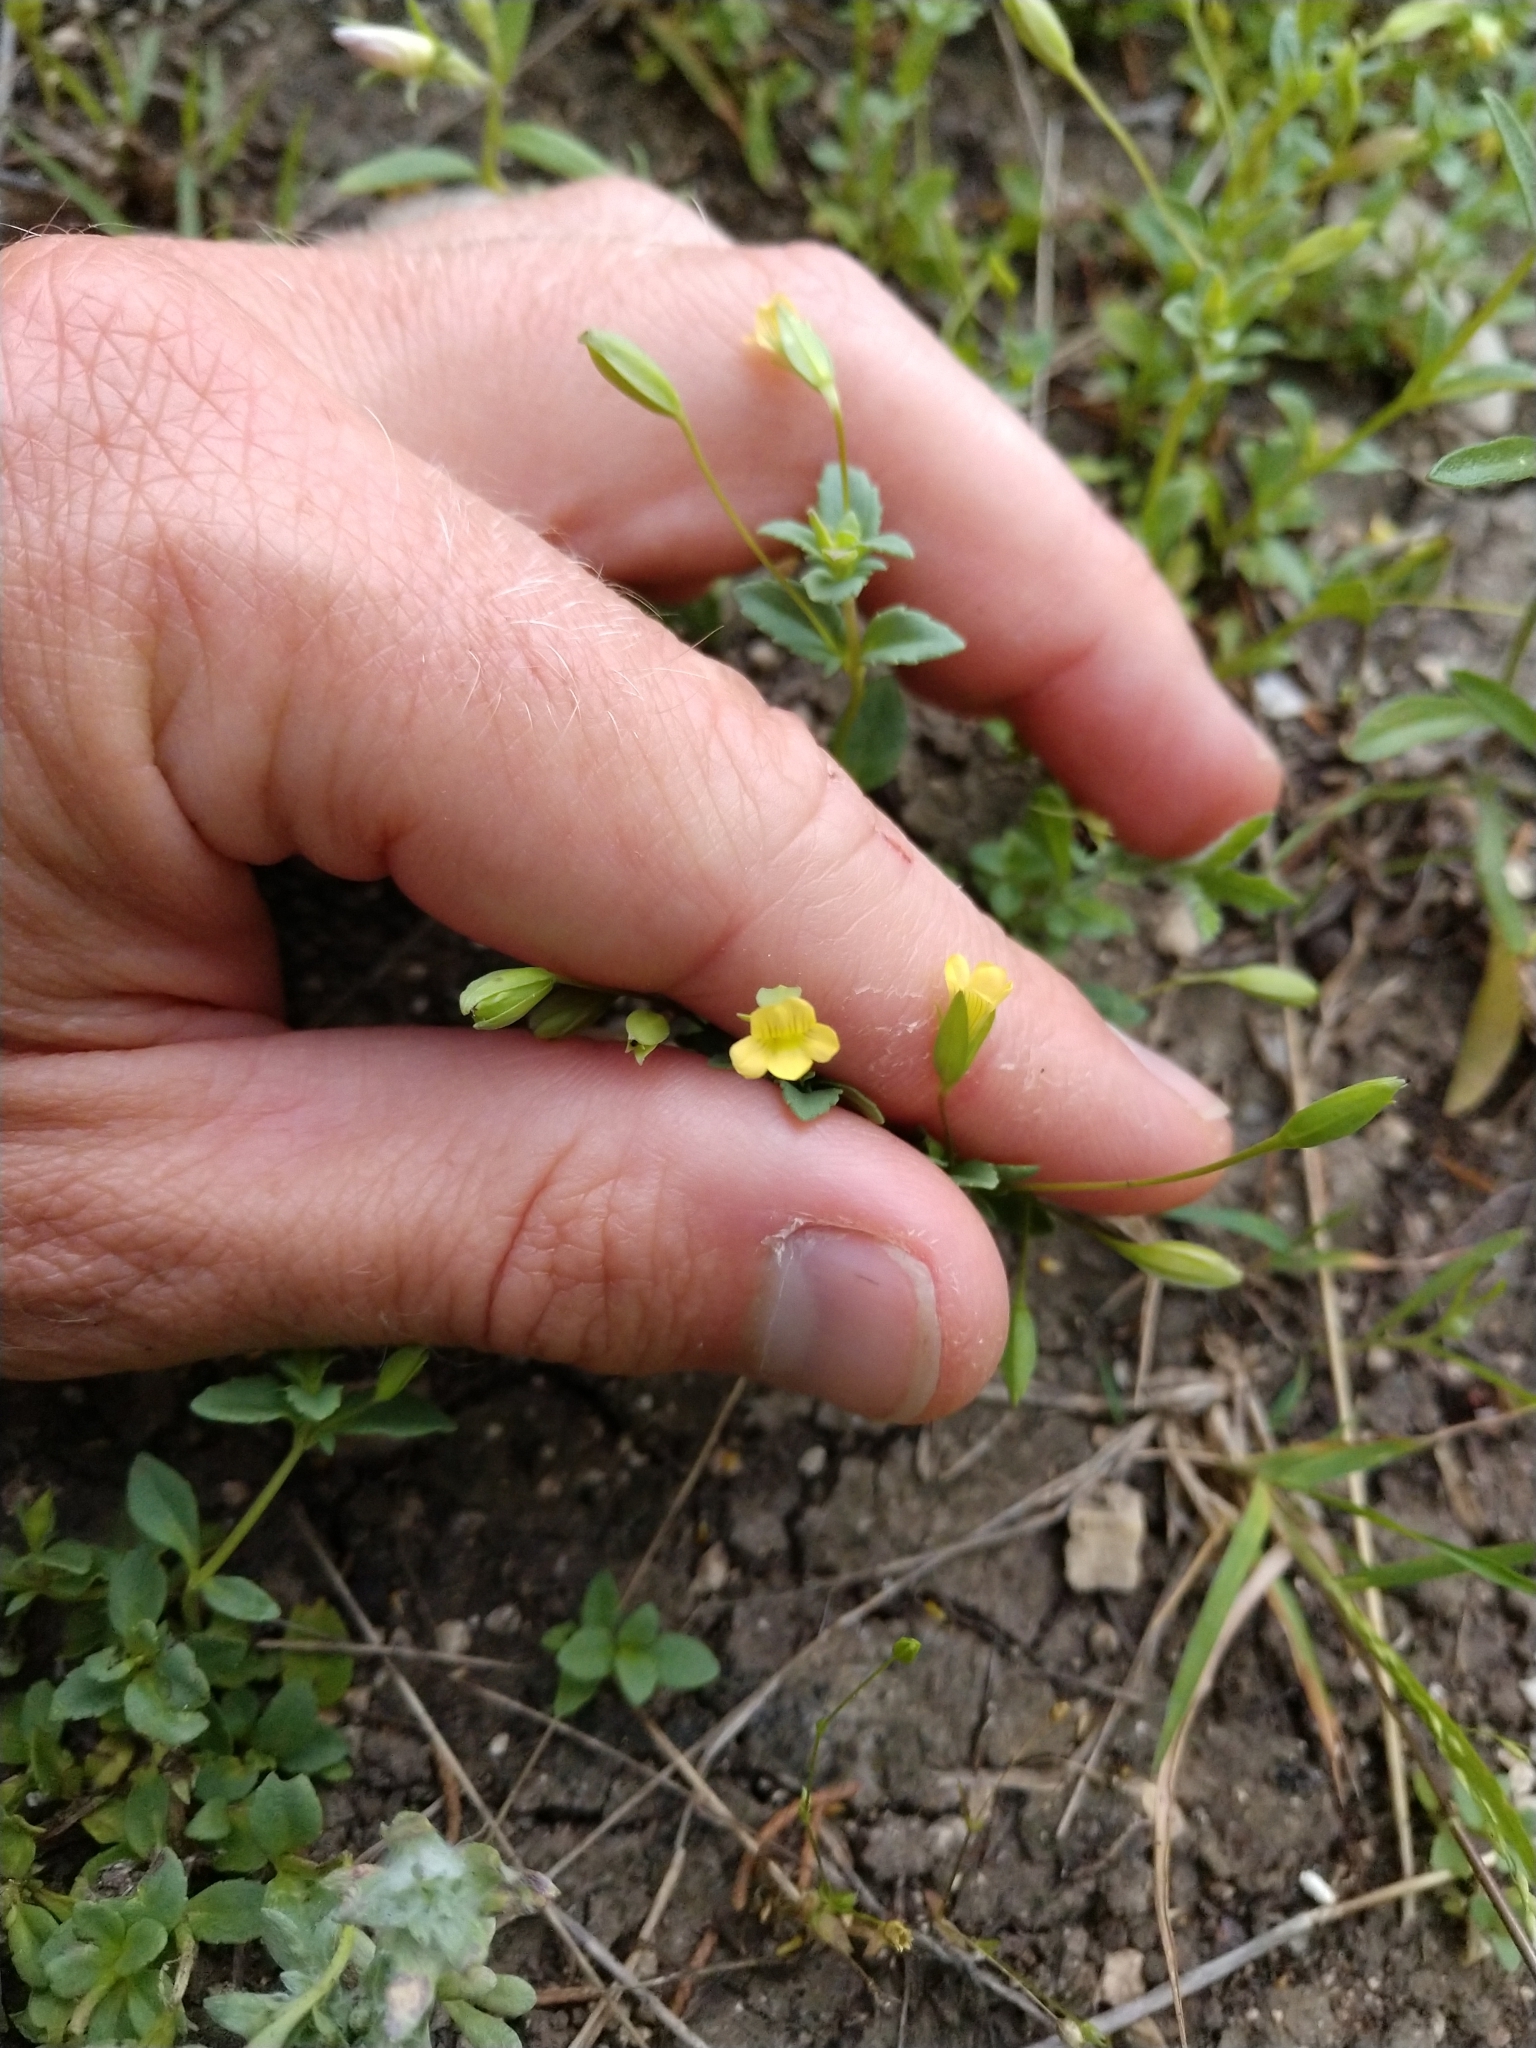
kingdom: Plantae
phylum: Tracheophyta
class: Magnoliopsida
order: Lamiales
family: Plantaginaceae
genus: Mecardonia
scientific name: Mecardonia procumbens
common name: Baby jump-up
